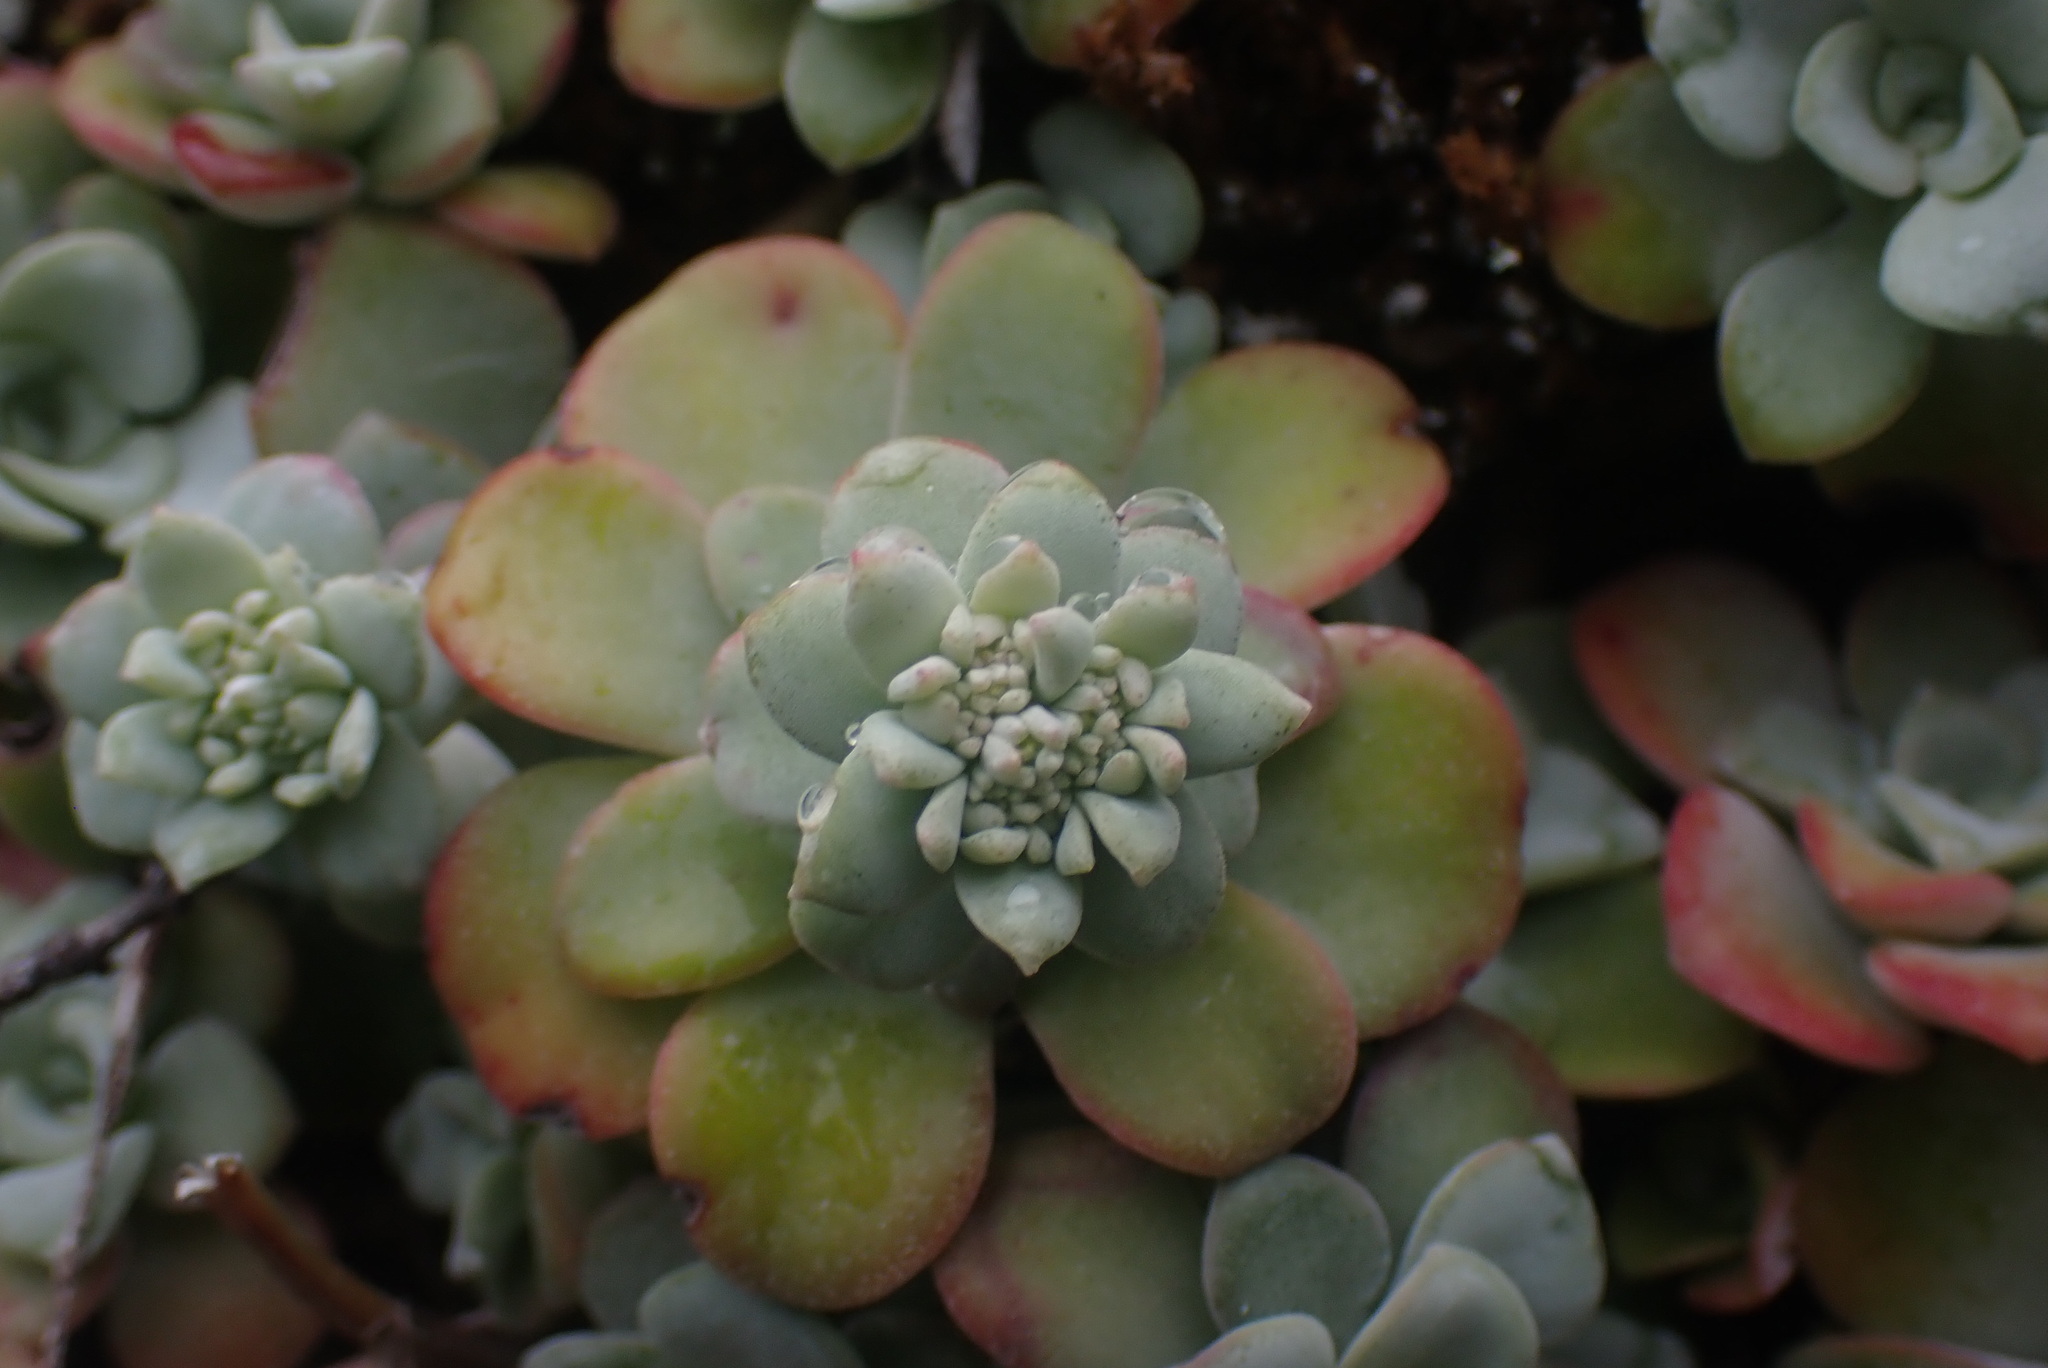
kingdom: Plantae
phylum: Tracheophyta
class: Magnoliopsida
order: Saxifragales
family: Crassulaceae
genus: Sedum
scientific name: Sedum spathulifolium
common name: Colorado stonecrop
